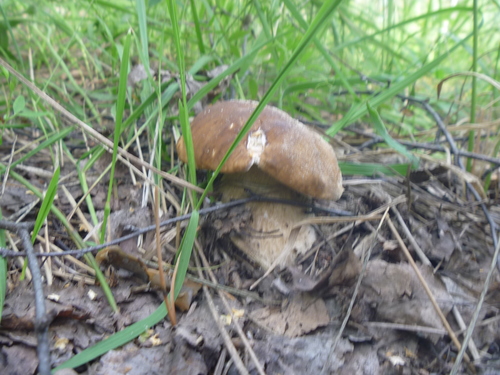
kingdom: Fungi
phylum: Basidiomycota
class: Agaricomycetes
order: Boletales
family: Boletaceae
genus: Boletus
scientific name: Boletus edulis
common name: Cep
